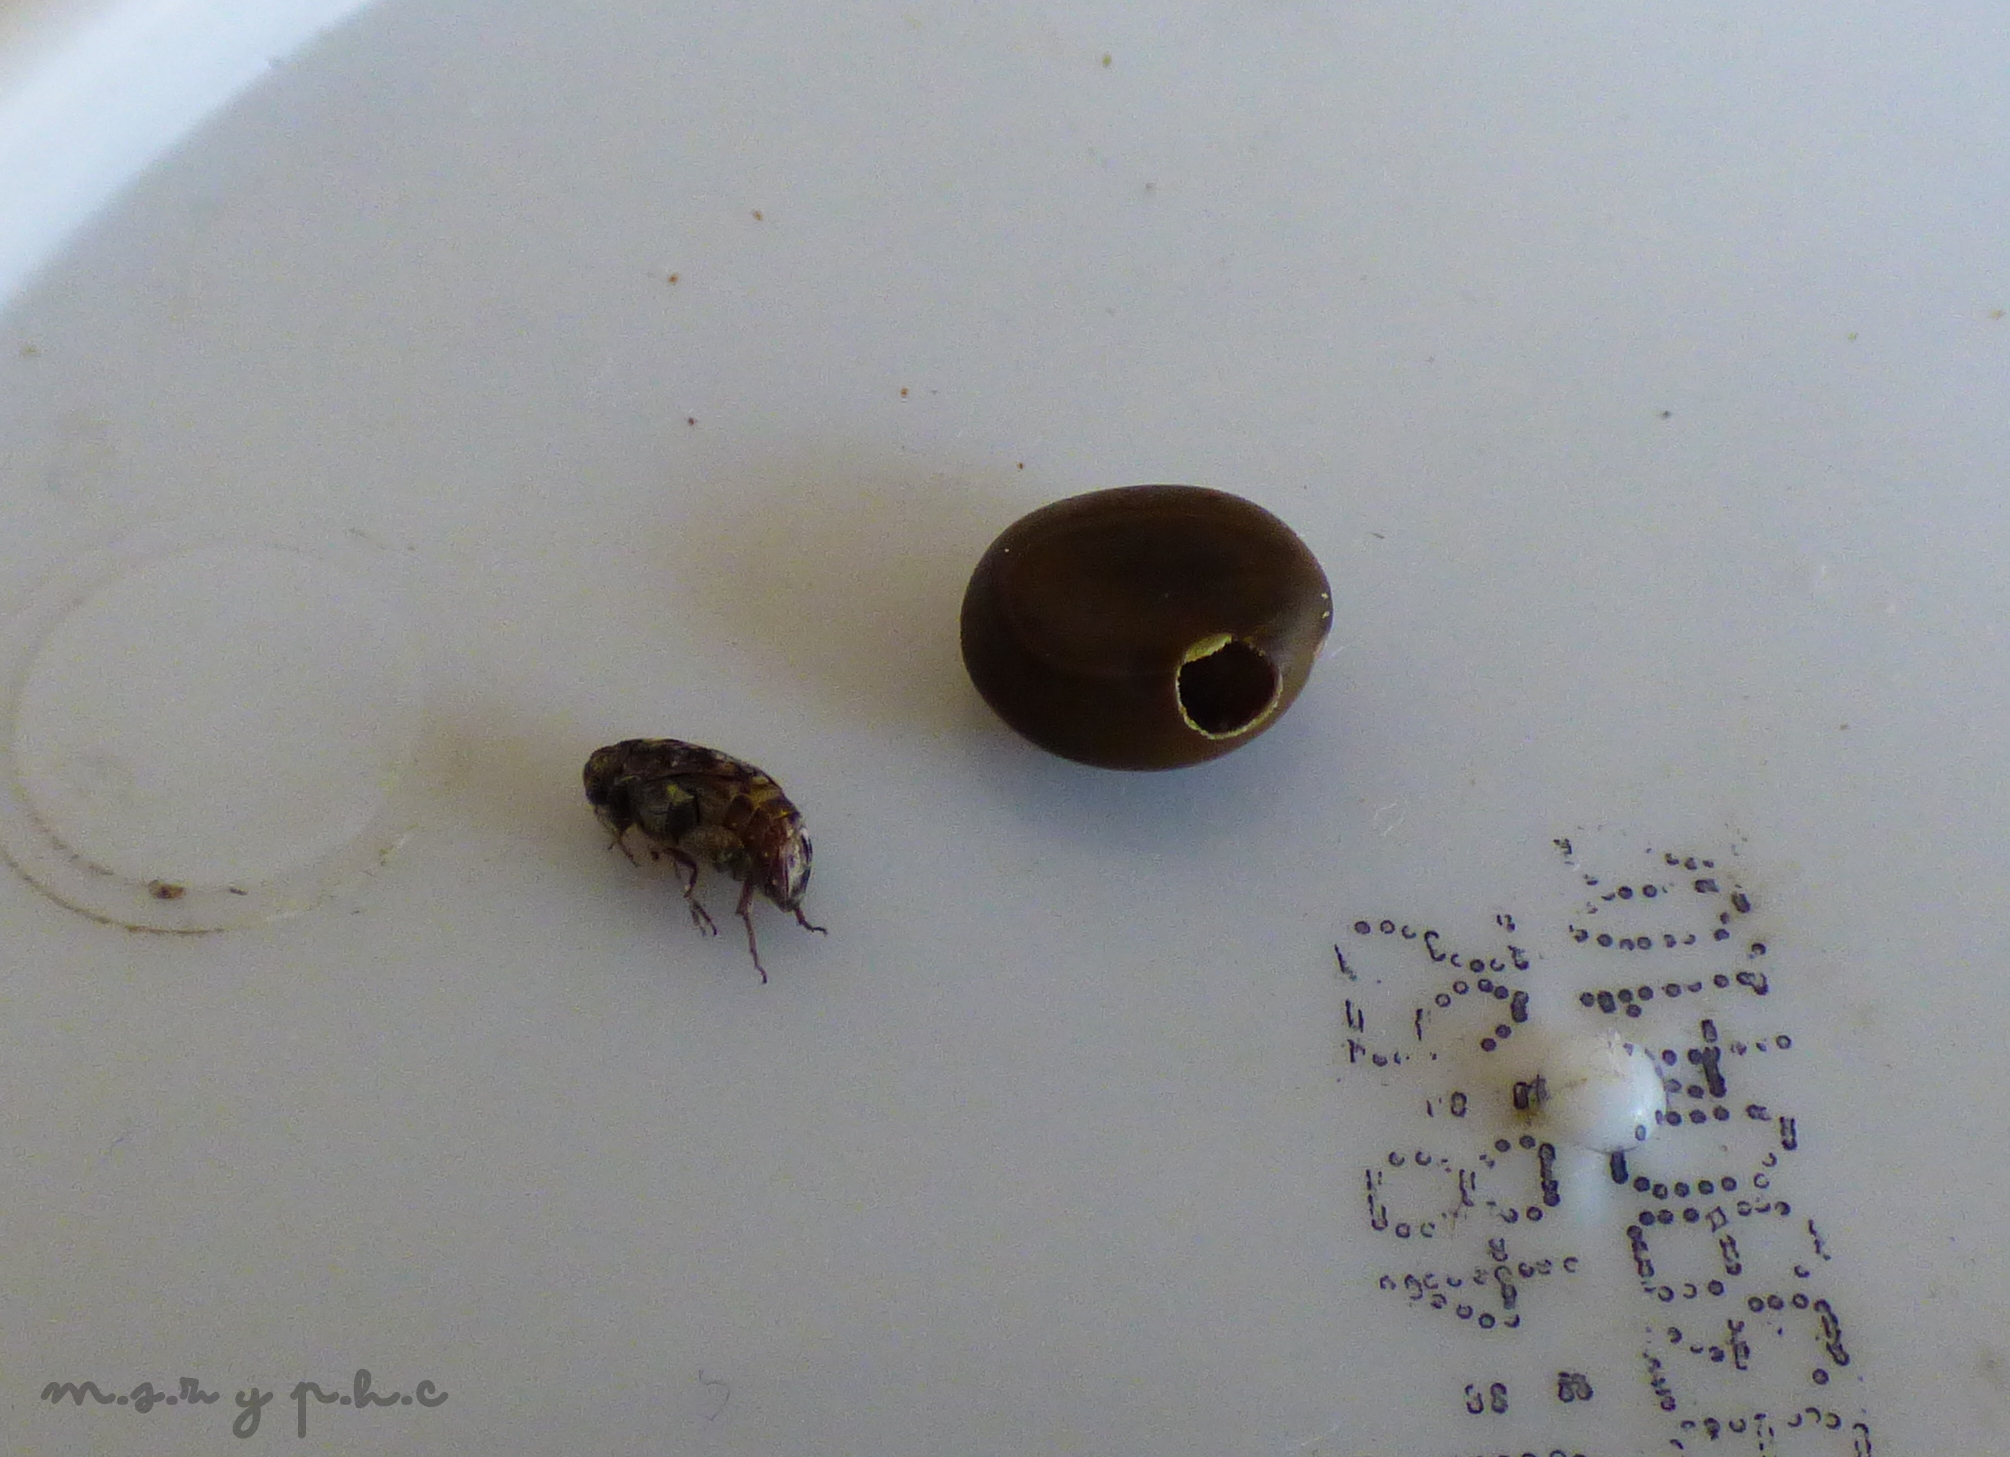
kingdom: Animalia
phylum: Arthropoda
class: Insecta
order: Coleoptera
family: Chrysomelidae
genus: Pseudopachymerina
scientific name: Pseudopachymerina spinipes
